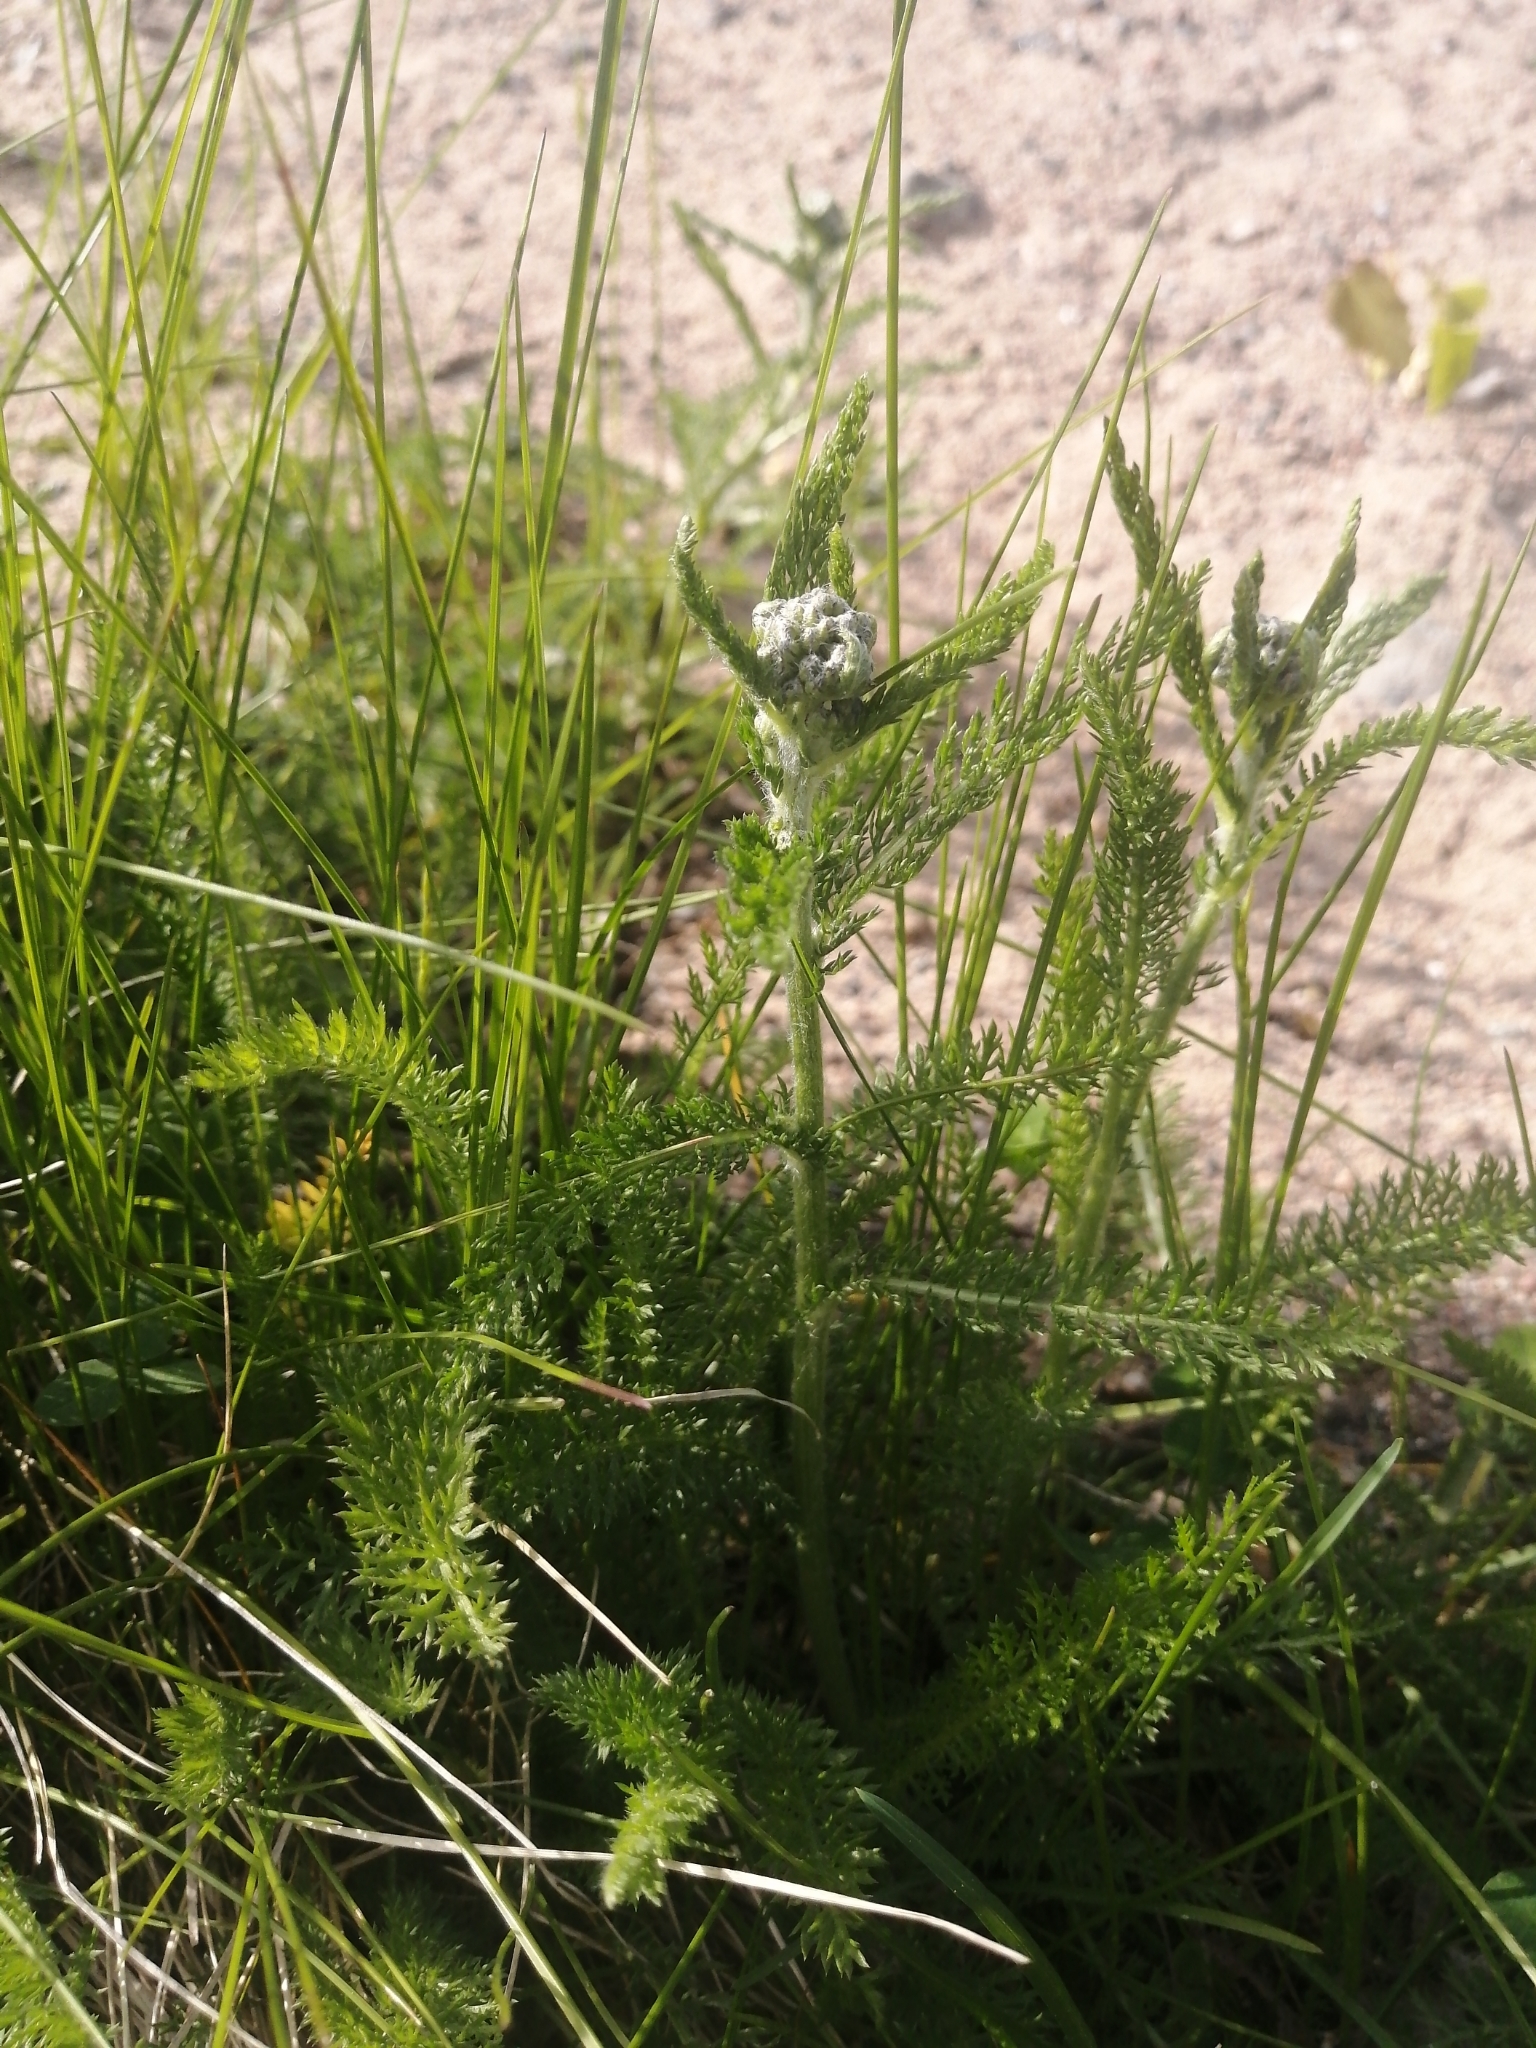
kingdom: Plantae
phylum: Tracheophyta
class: Magnoliopsida
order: Asterales
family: Asteraceae
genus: Achillea
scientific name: Achillea millefolium
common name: Yarrow
